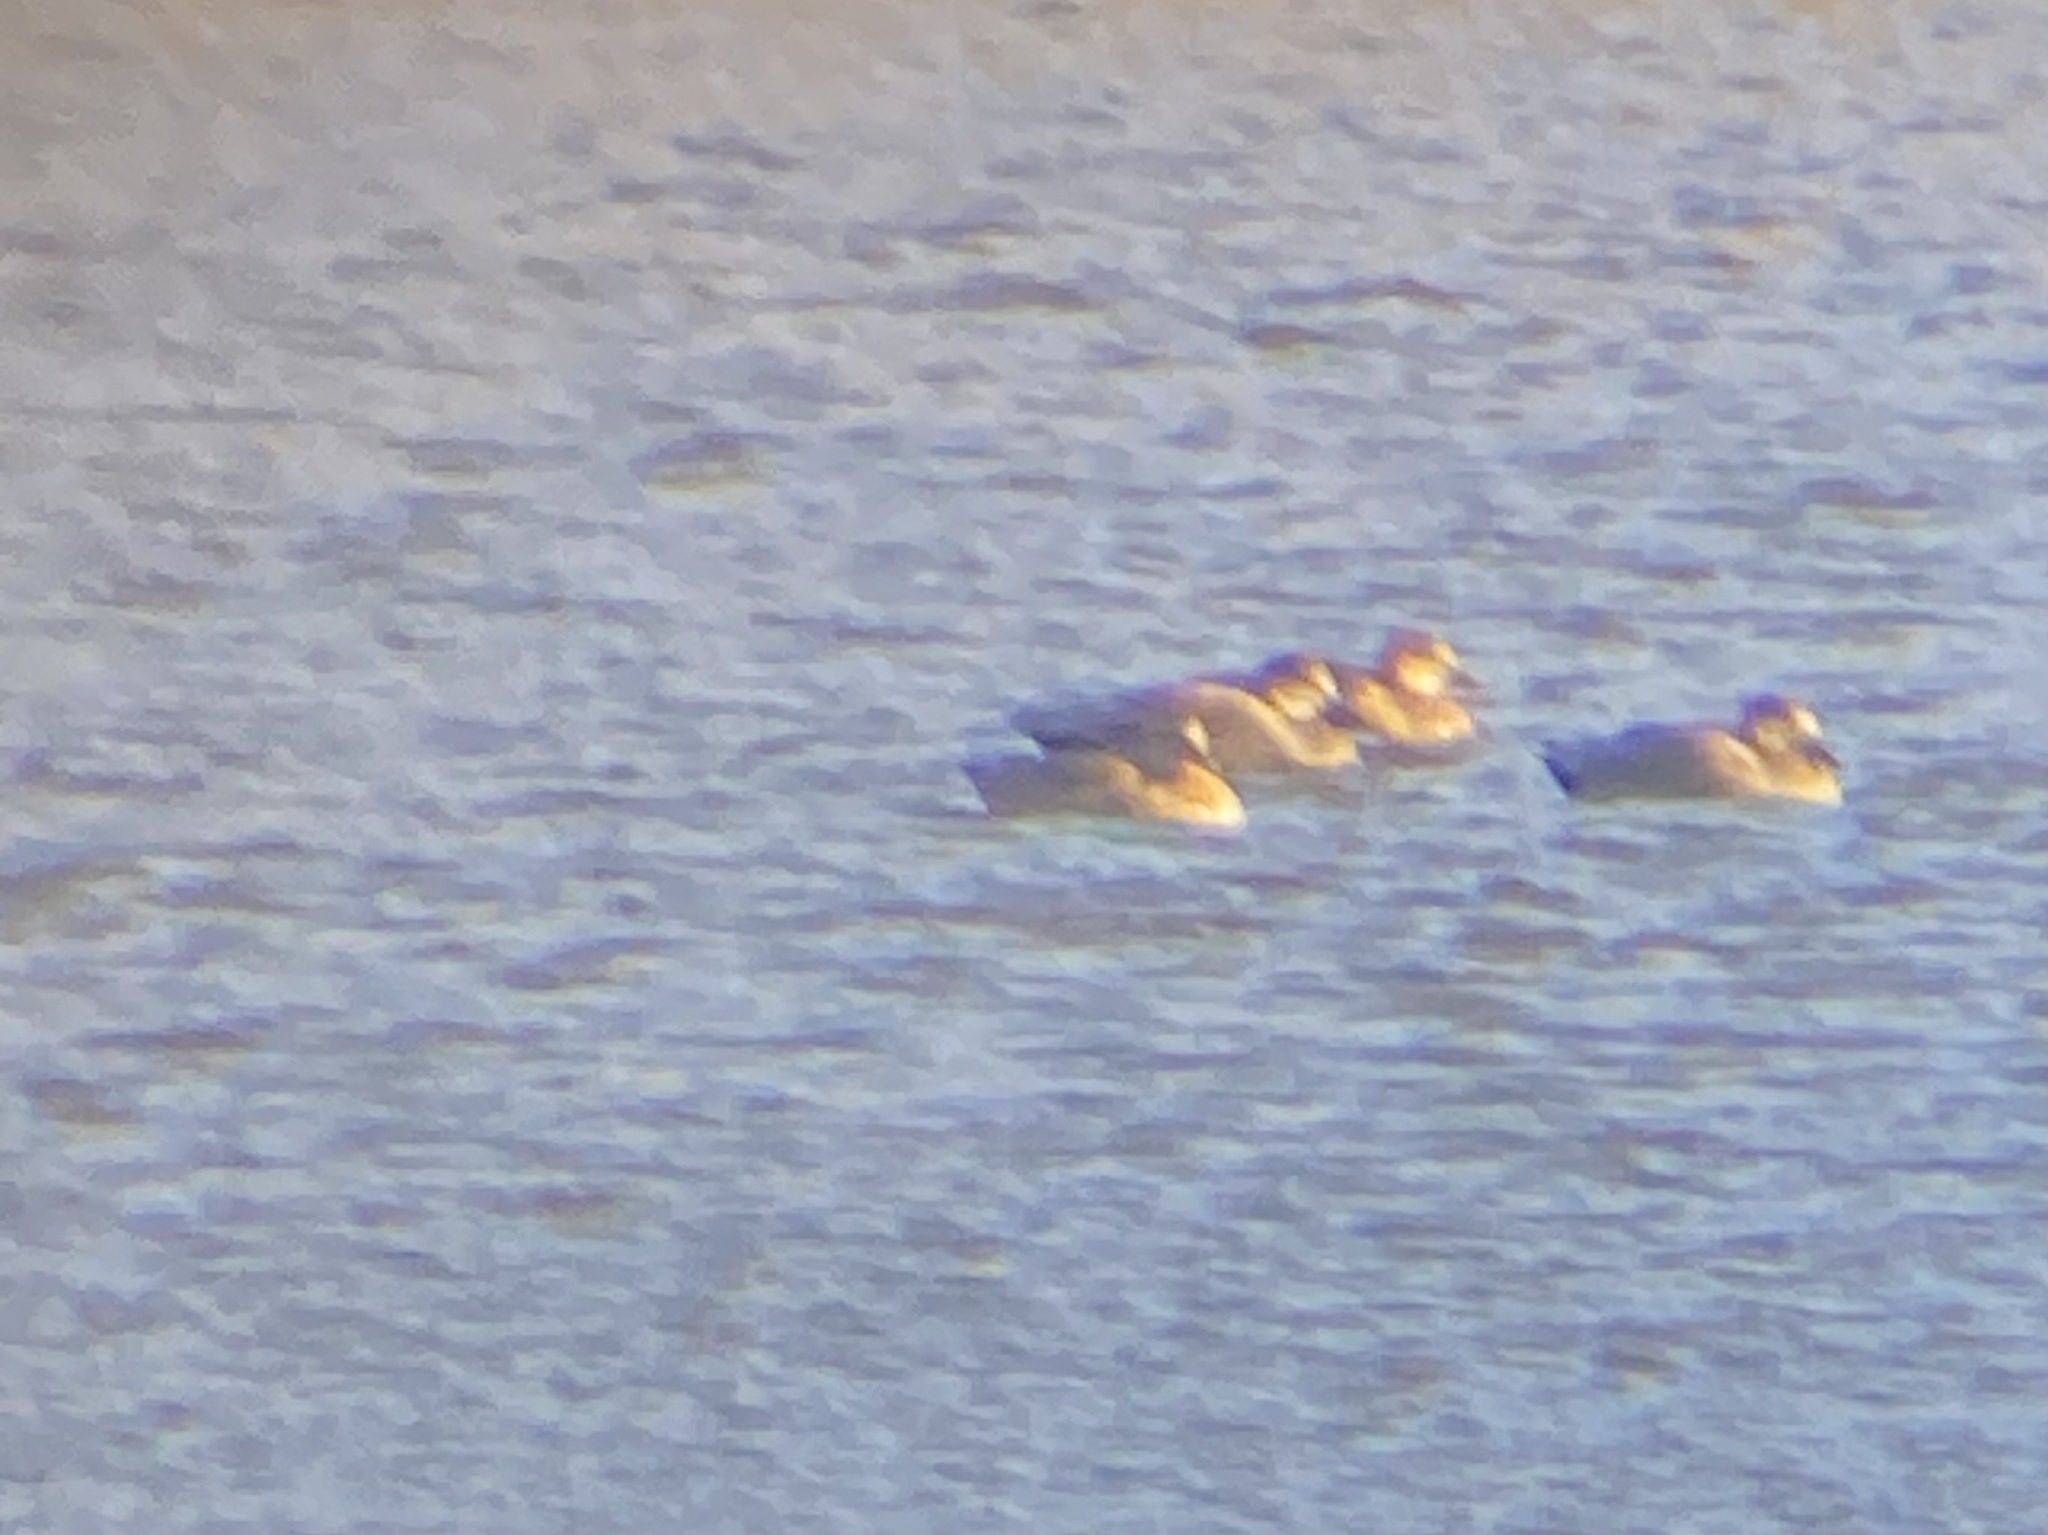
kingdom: Animalia
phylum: Chordata
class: Aves
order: Anseriformes
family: Anatidae
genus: Mareca
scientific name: Mareca strepera
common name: Gadwall
